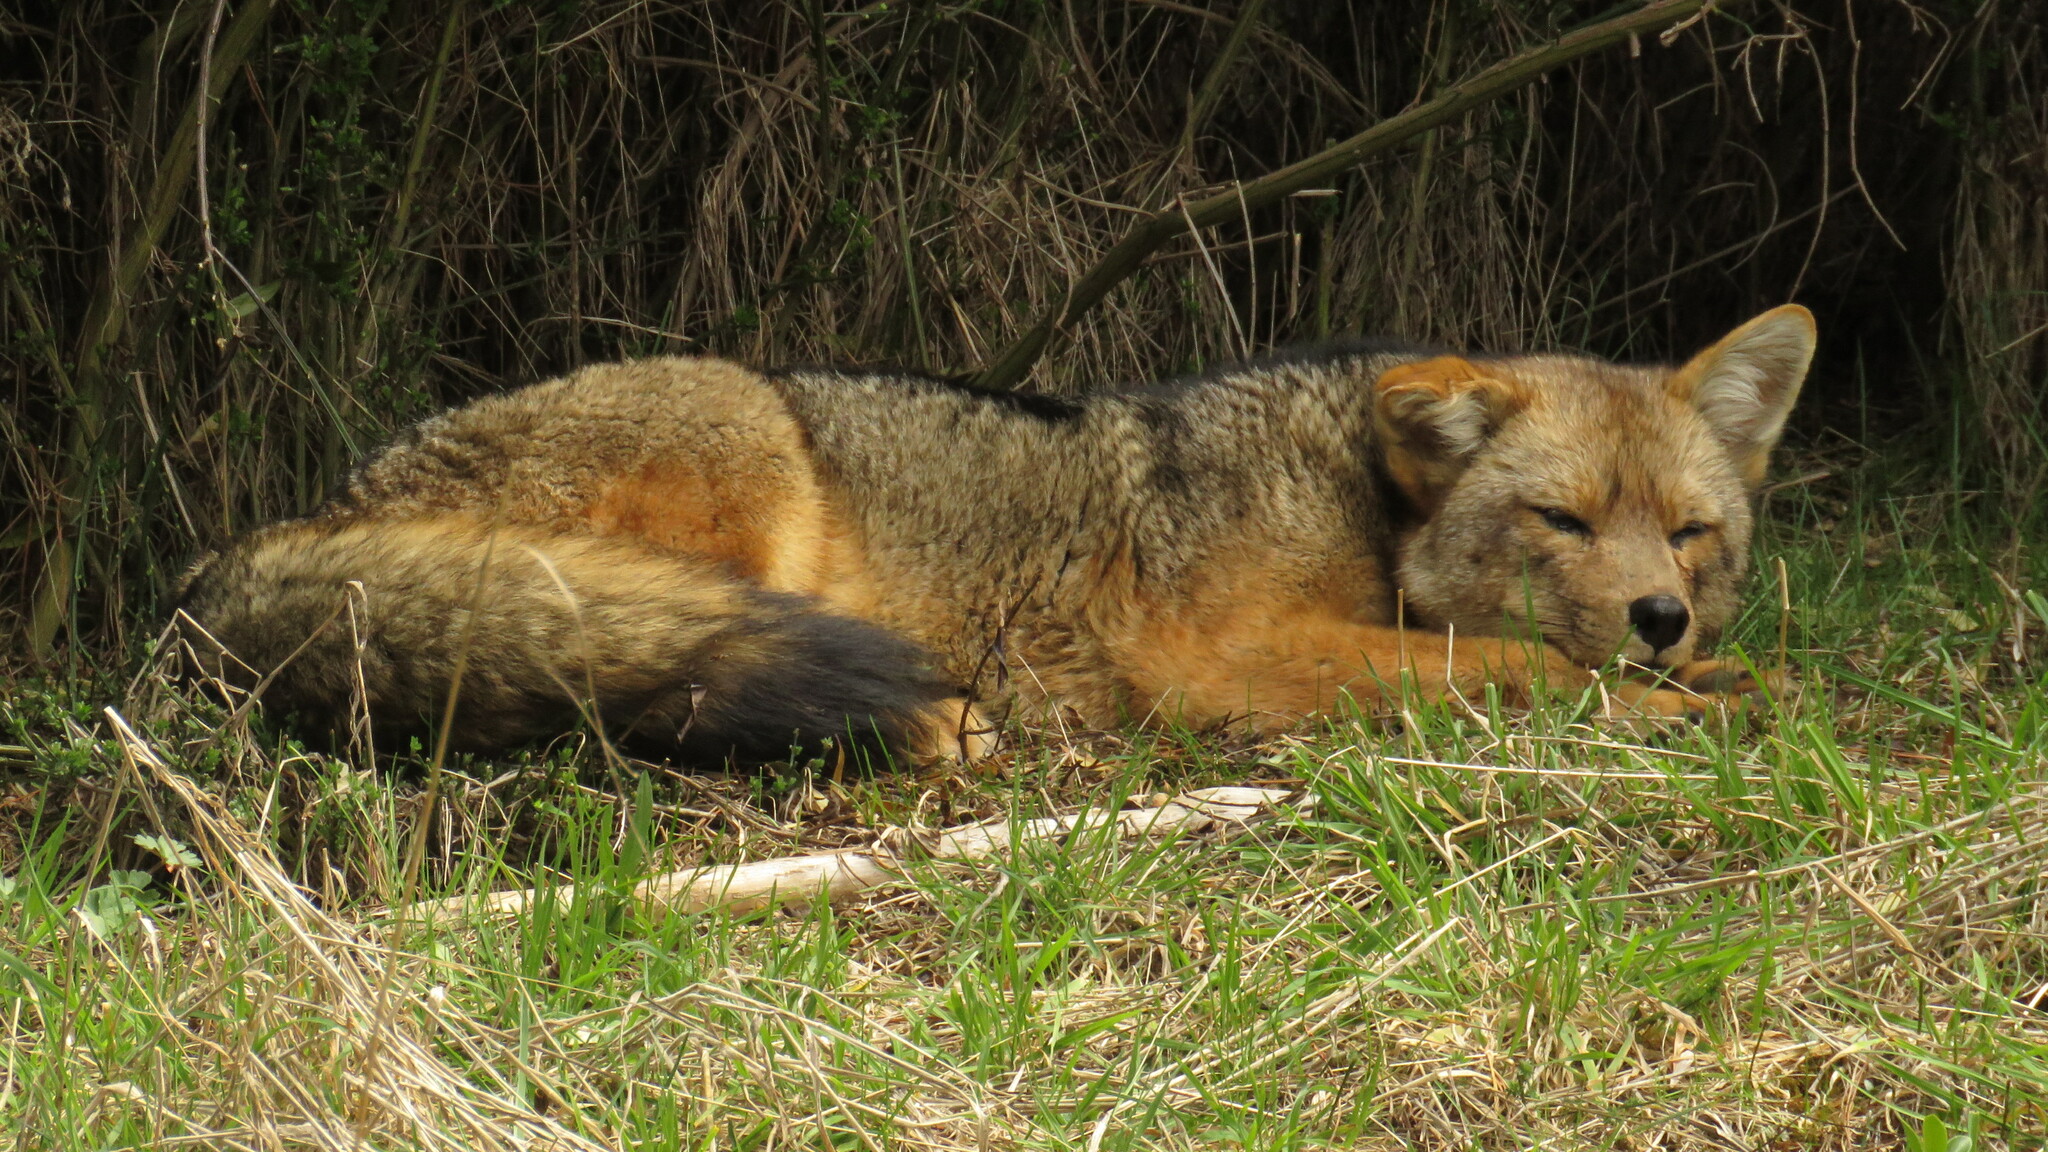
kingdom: Animalia
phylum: Chordata
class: Mammalia
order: Carnivora
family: Canidae
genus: Lycalopex
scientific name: Lycalopex culpaeus
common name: Culpeo
